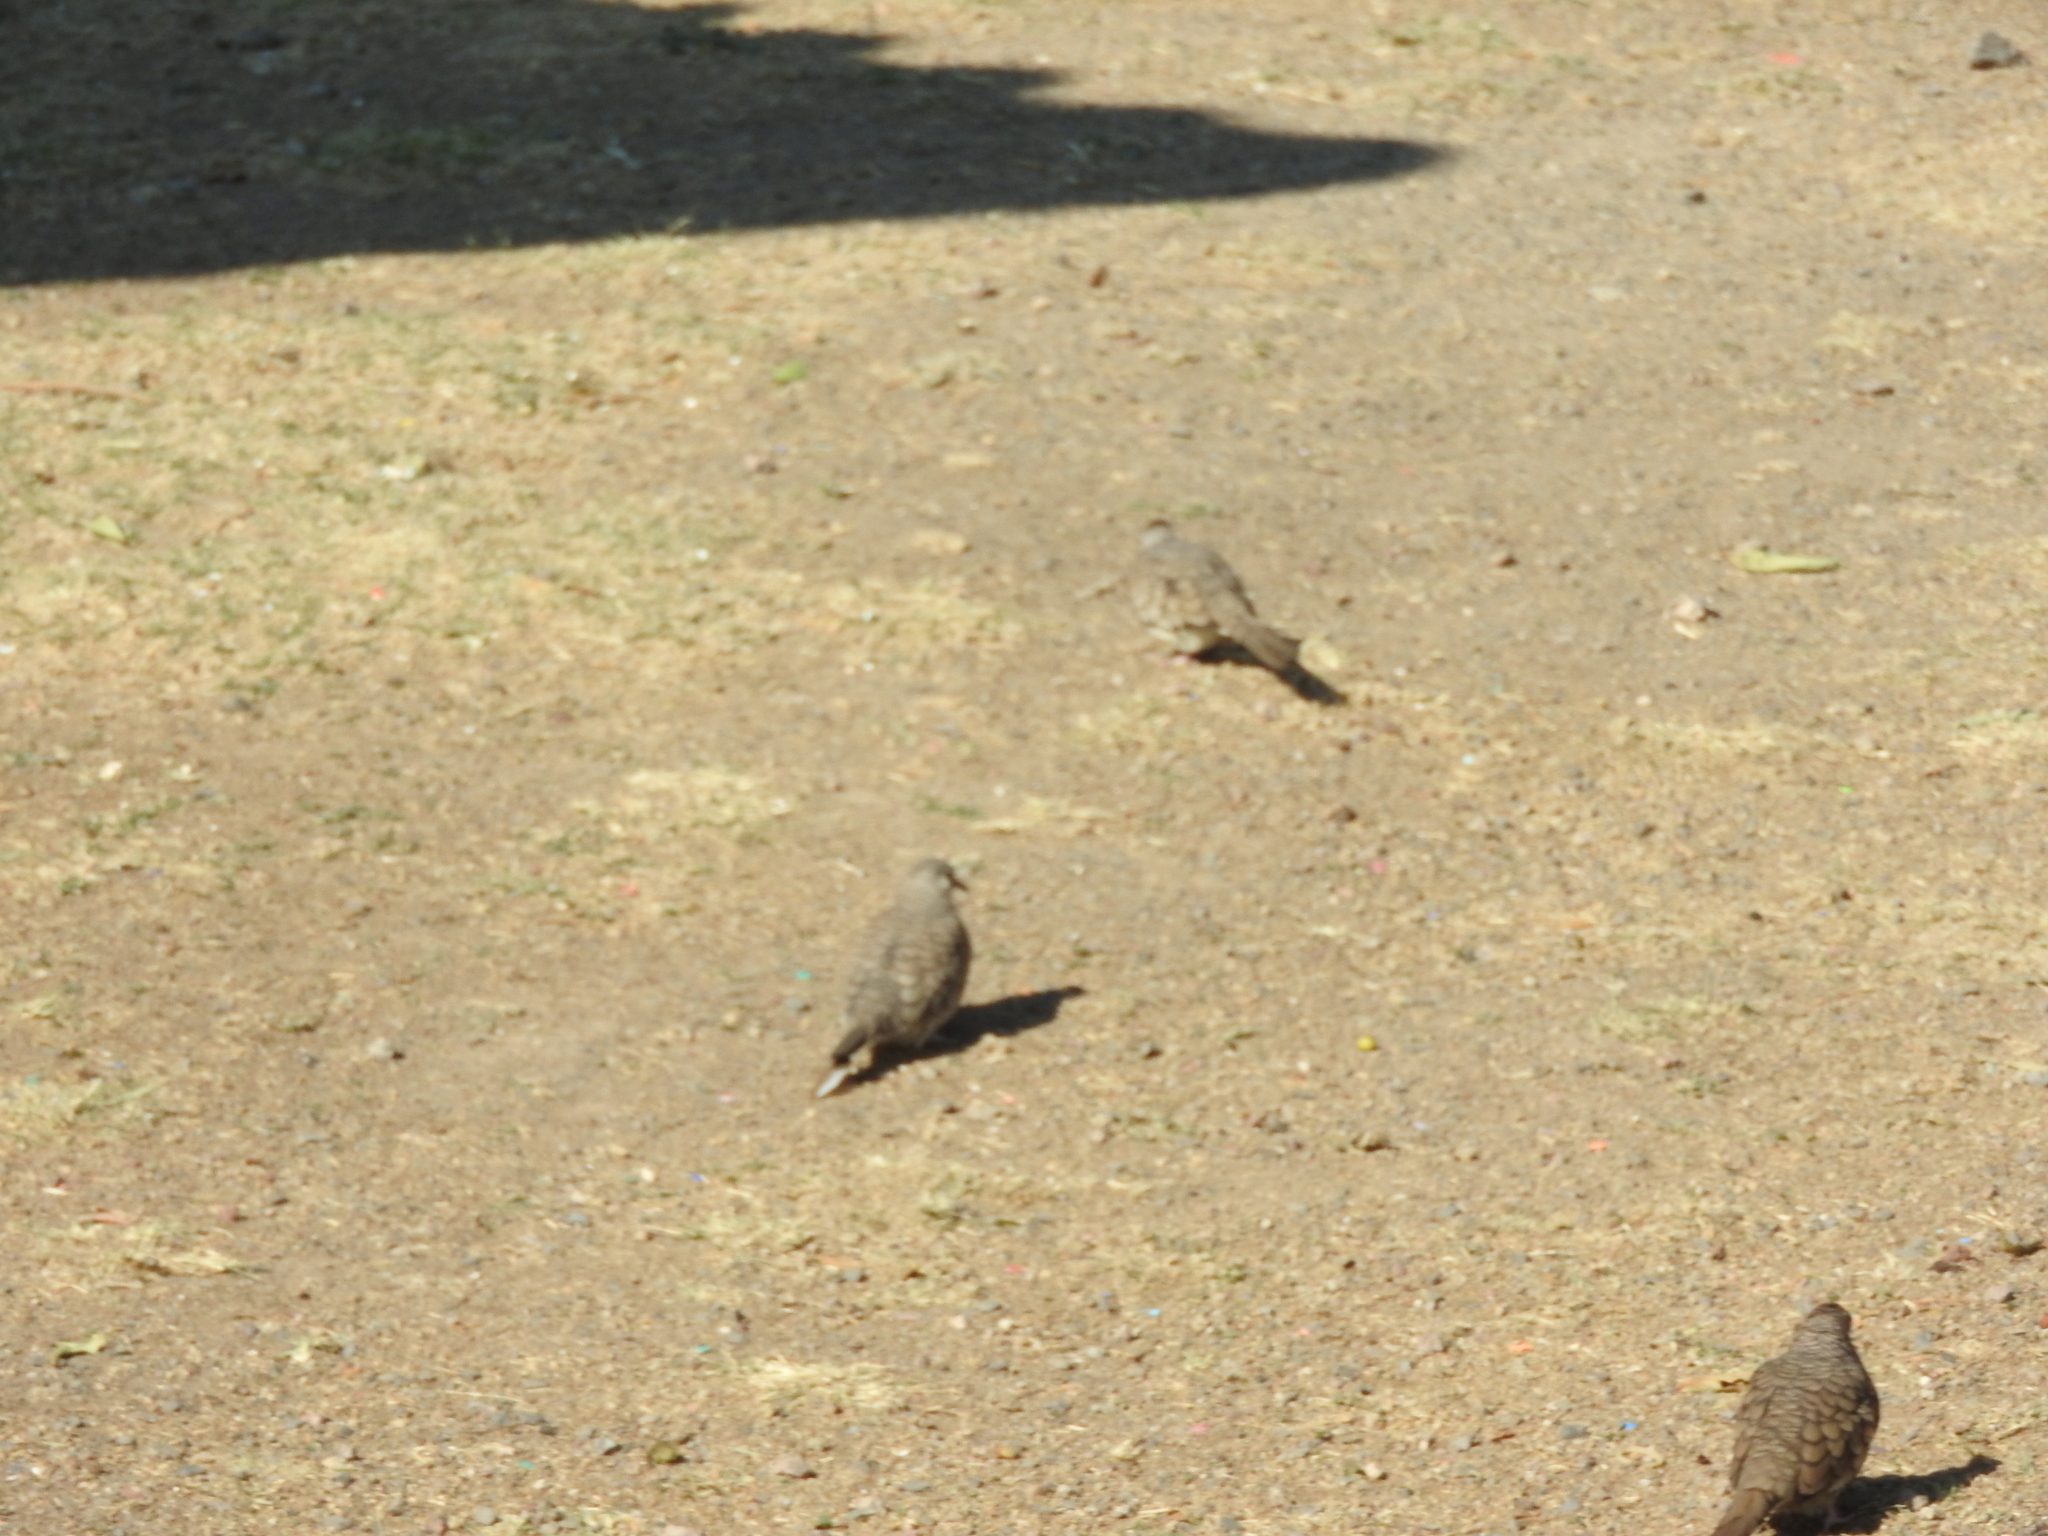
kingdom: Animalia
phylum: Chordata
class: Aves
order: Columbiformes
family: Columbidae
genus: Columbina
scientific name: Columbina inca
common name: Inca dove
